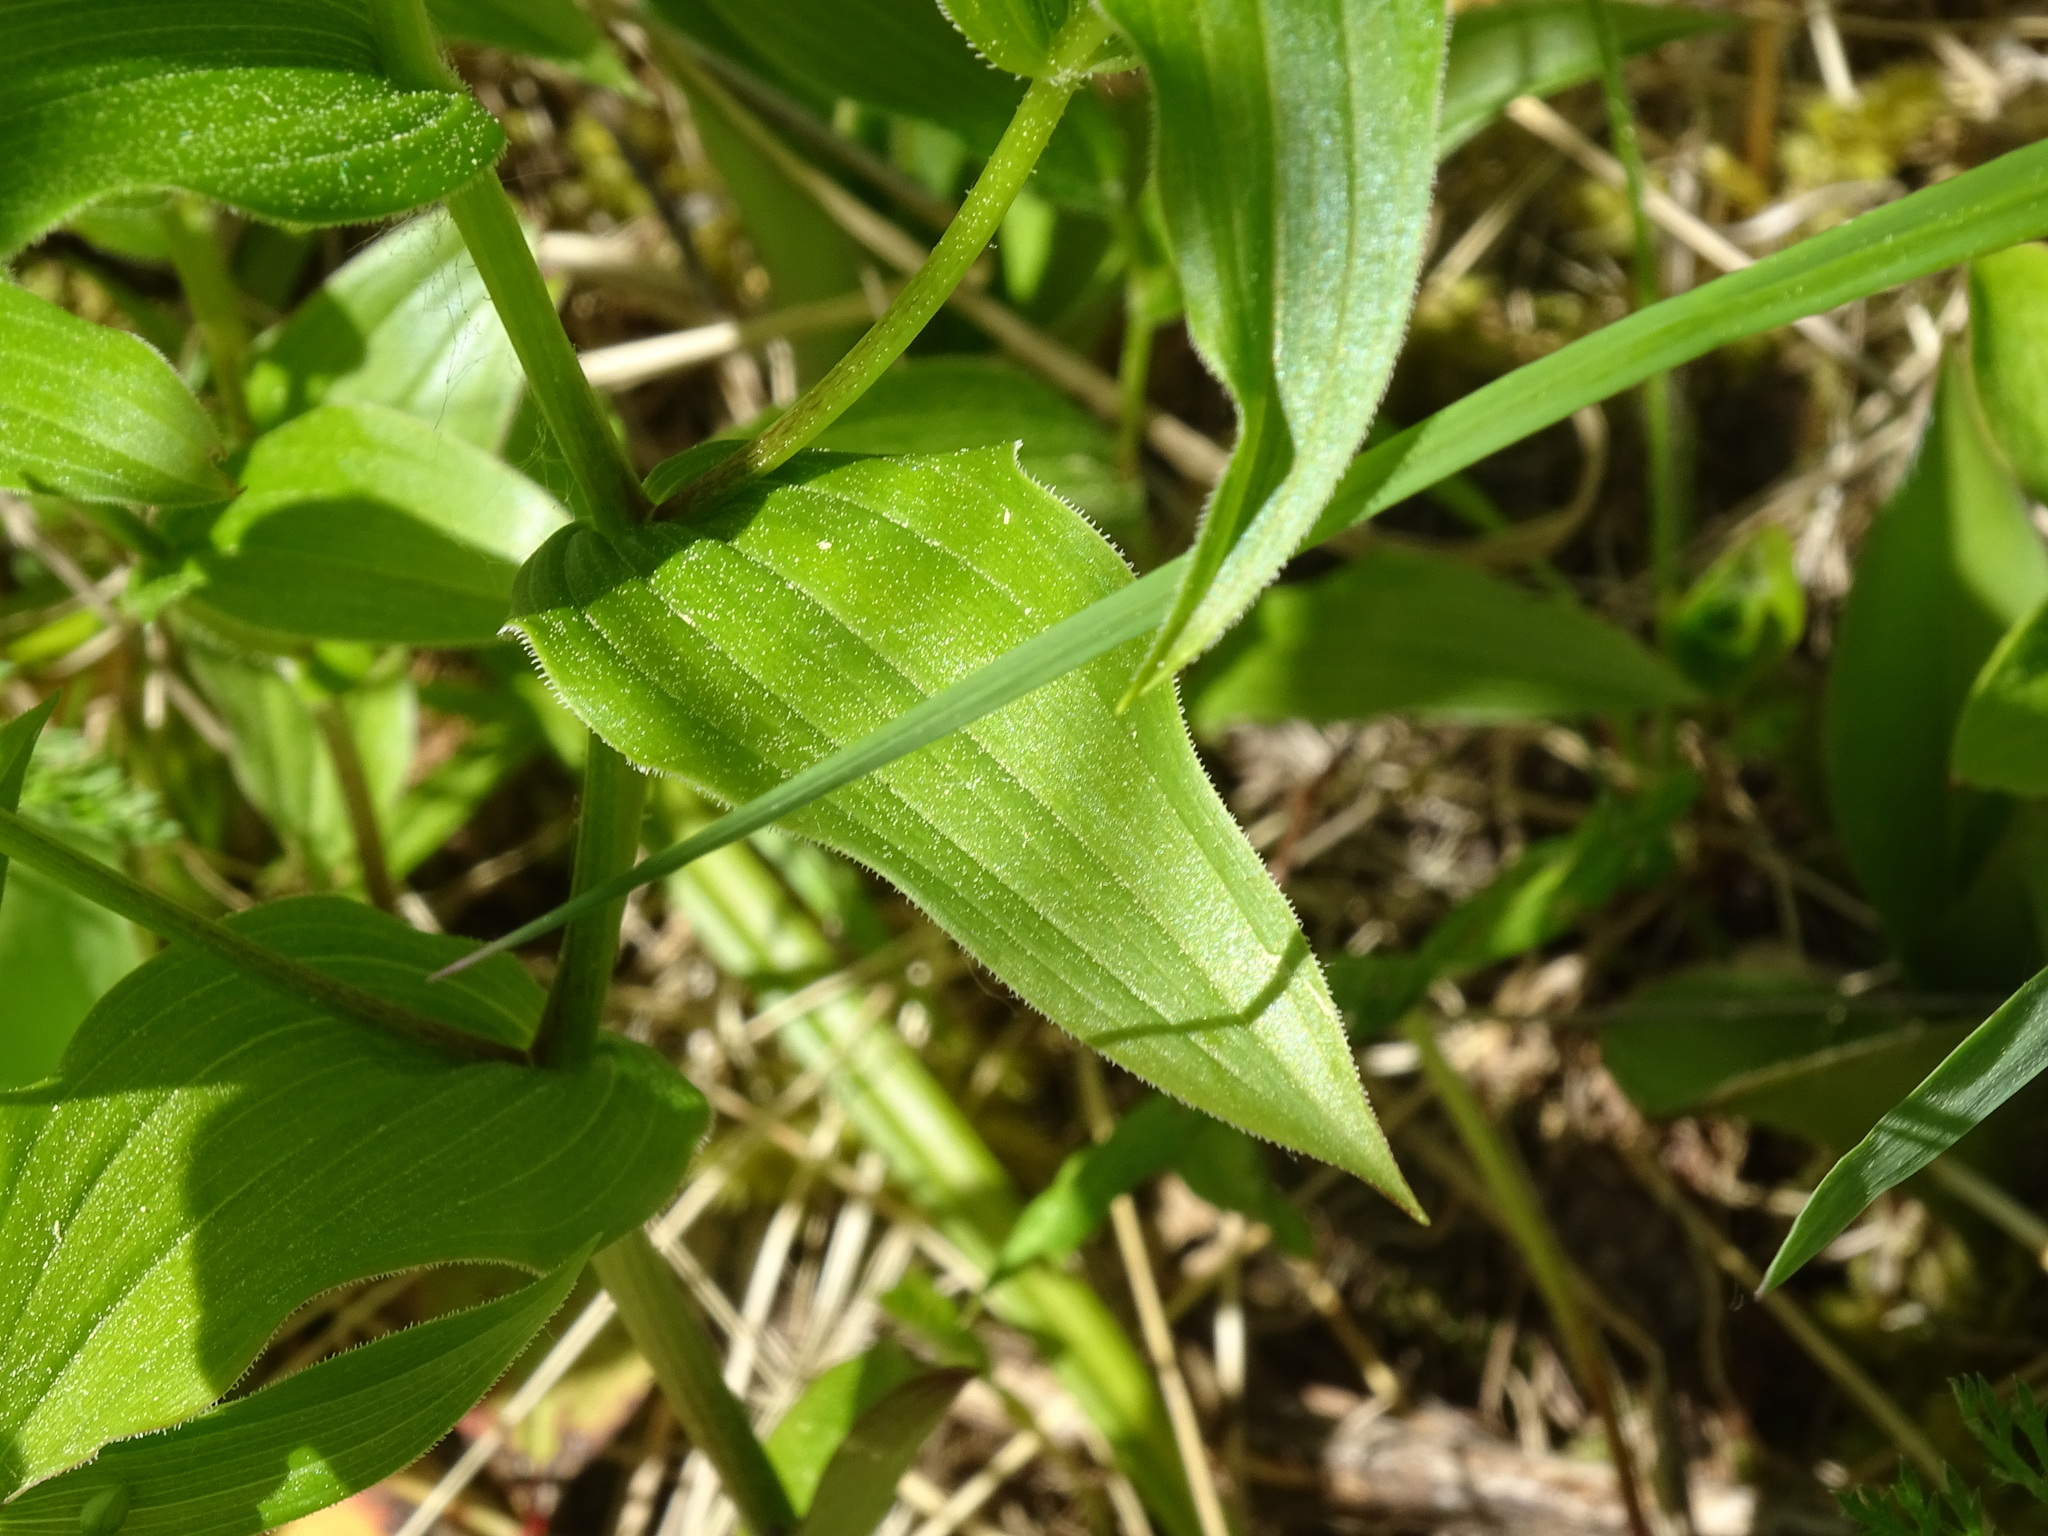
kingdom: Plantae
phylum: Tracheophyta
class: Liliopsida
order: Liliales
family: Liliaceae
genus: Streptopus
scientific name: Streptopus lanceolatus
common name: Rose mandarin
